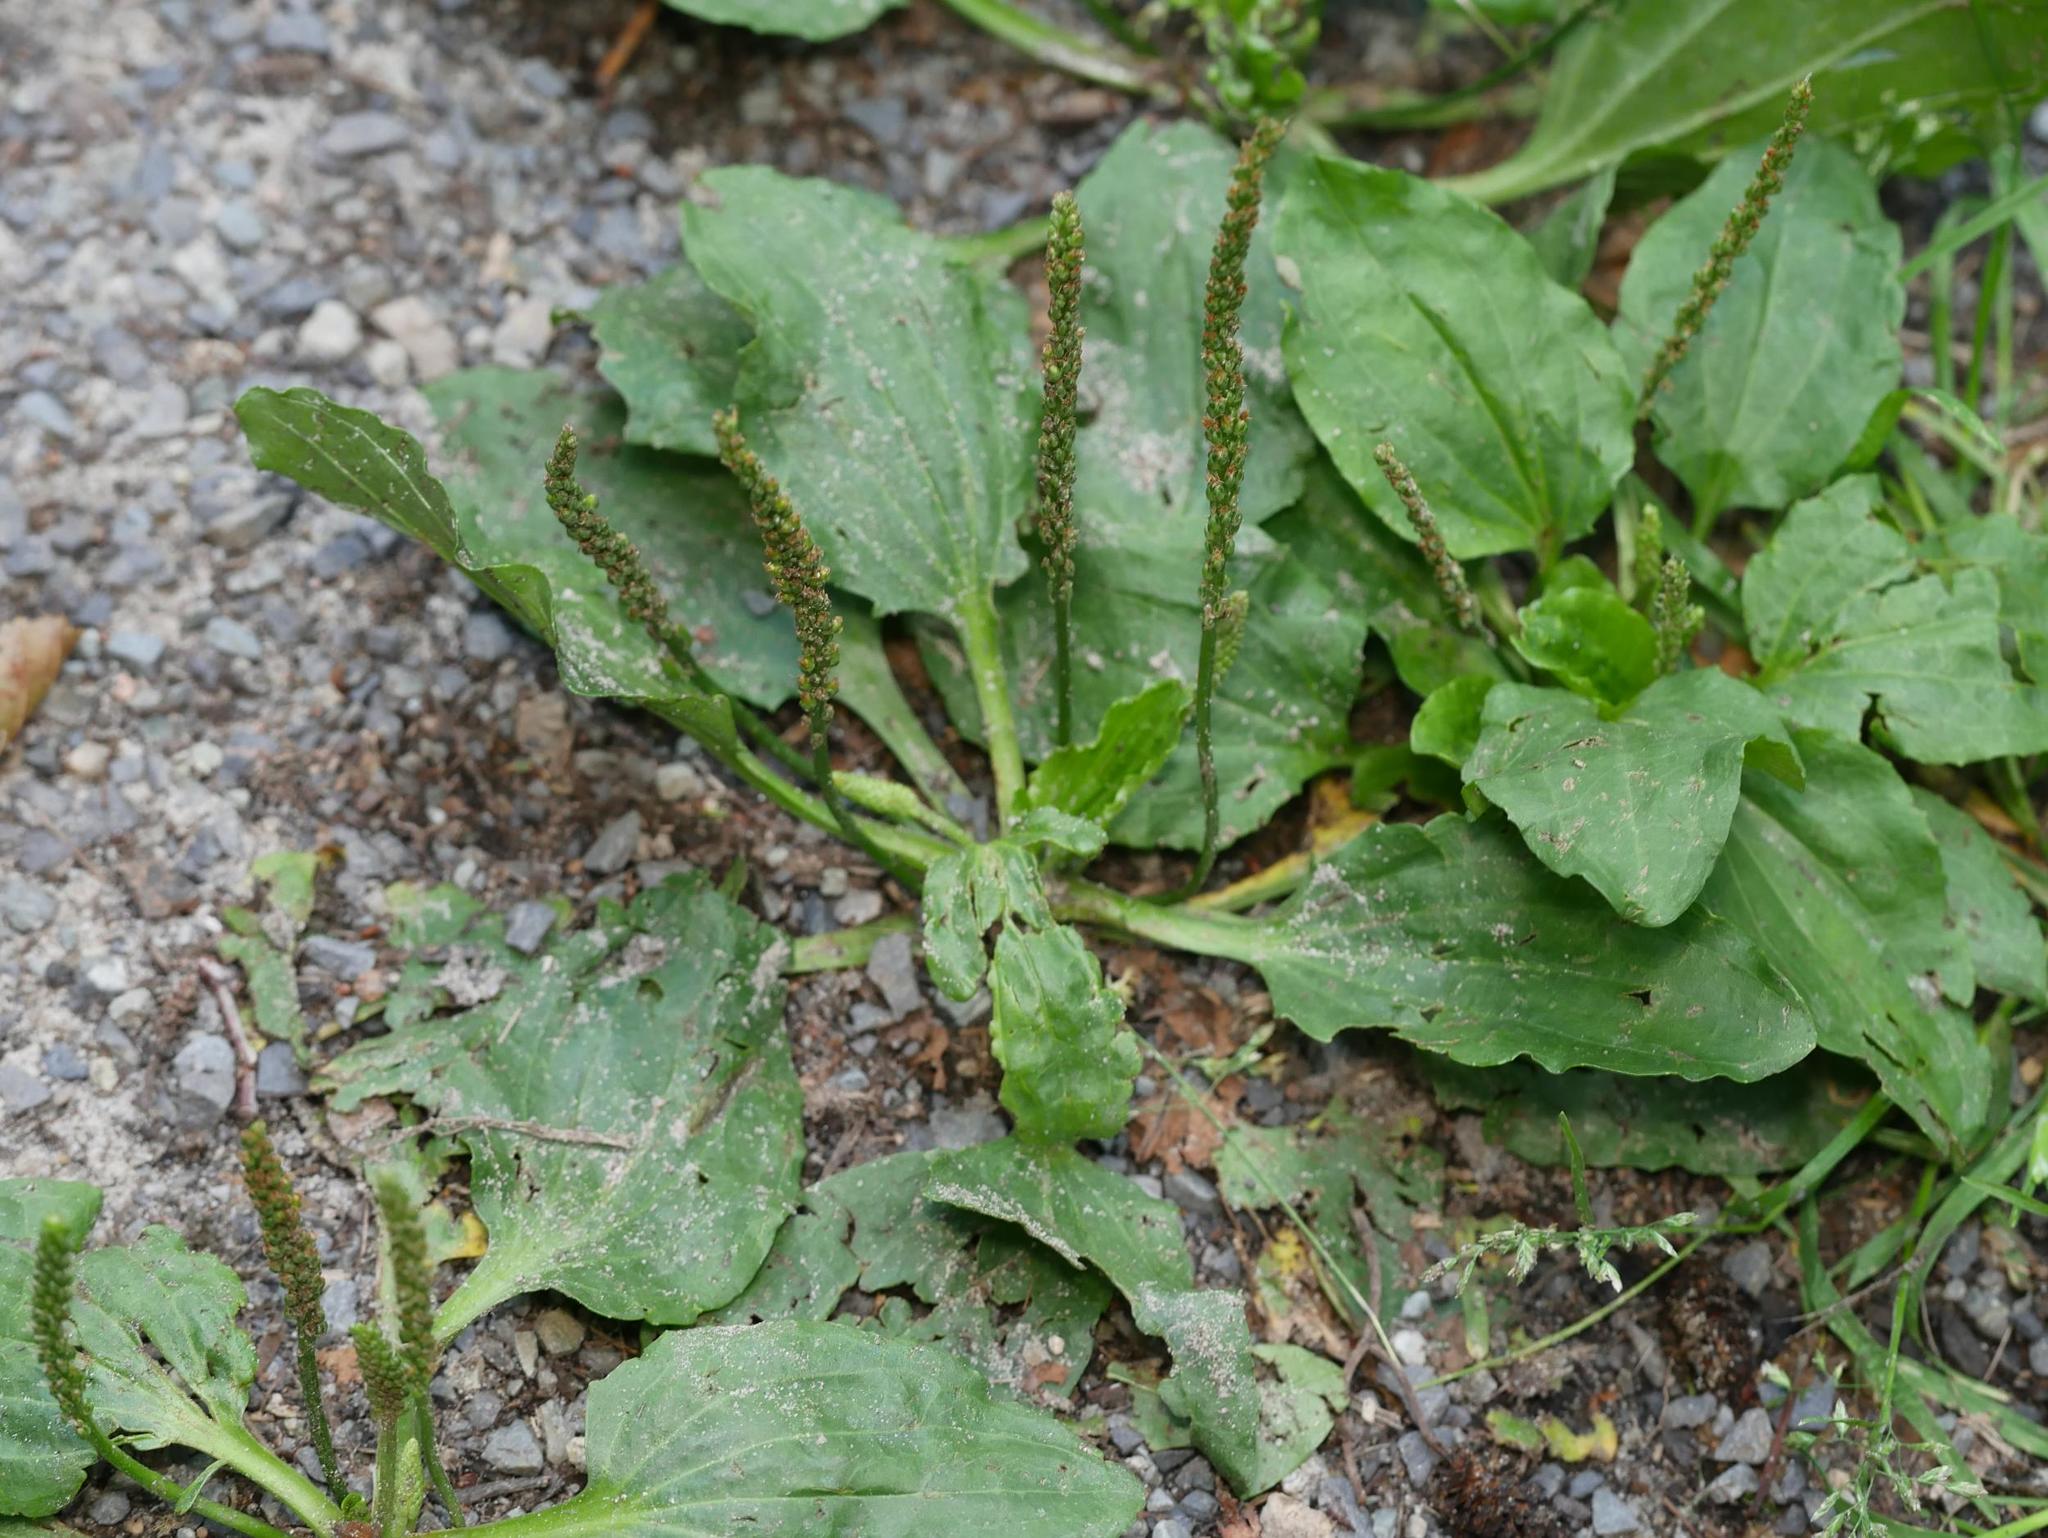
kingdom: Plantae
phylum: Tracheophyta
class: Magnoliopsida
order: Lamiales
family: Plantaginaceae
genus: Plantago
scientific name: Plantago major
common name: Common plantain
